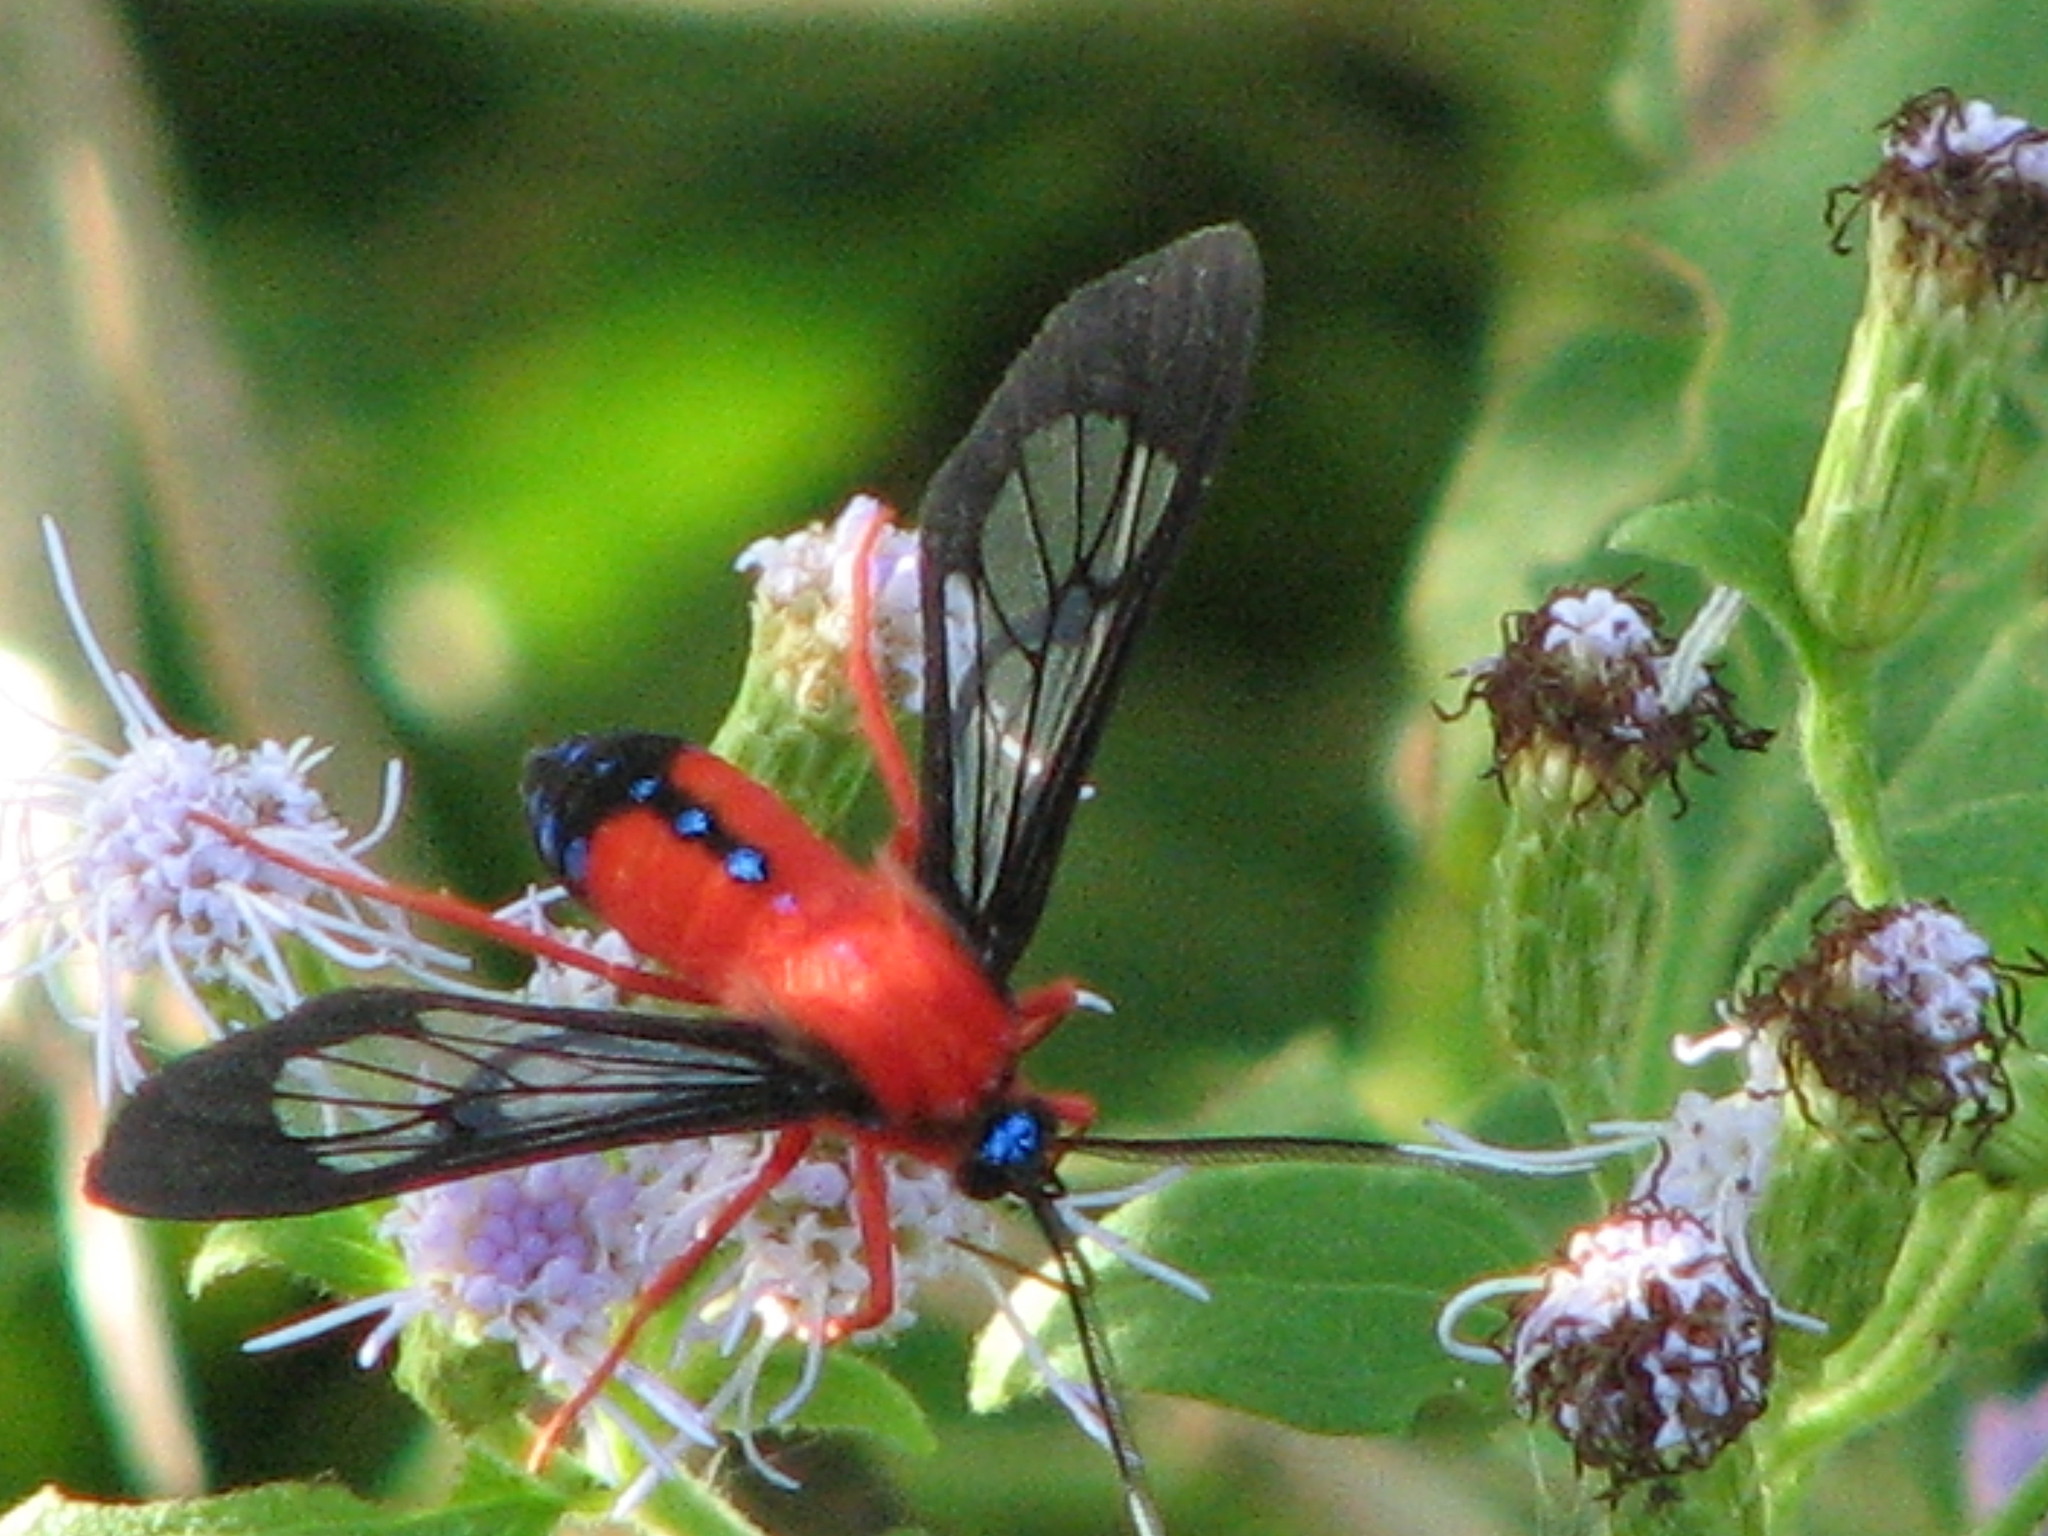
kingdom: Animalia
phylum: Arthropoda
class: Insecta
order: Lepidoptera
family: Erebidae
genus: Cosmosoma
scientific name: Cosmosoma myrodora
